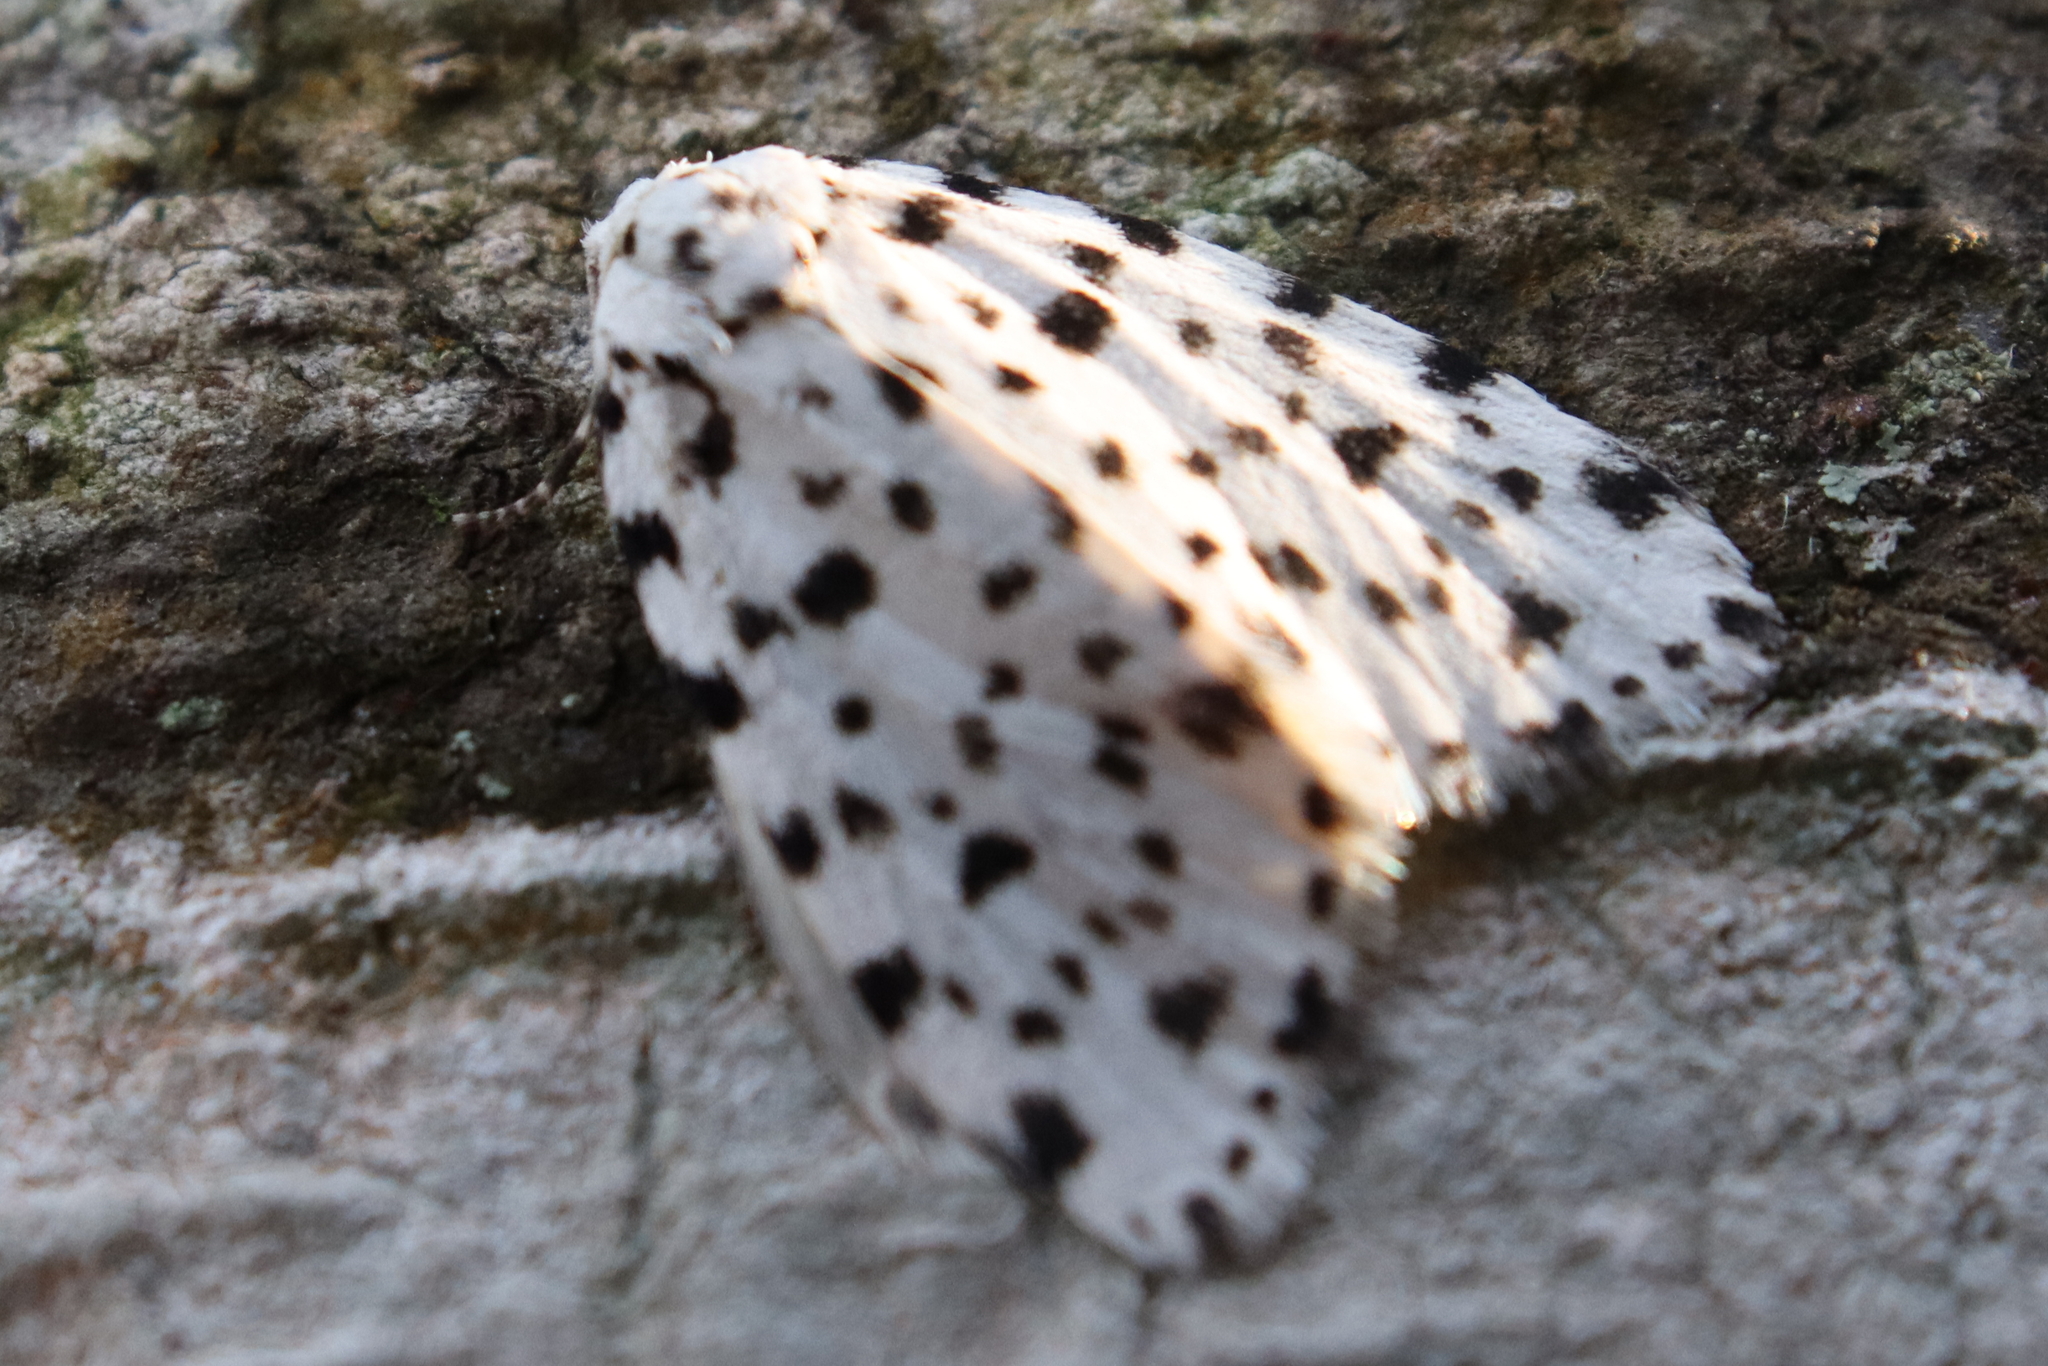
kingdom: Animalia
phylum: Arthropoda
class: Insecta
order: Lepidoptera
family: Erebidae
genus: Clemensia
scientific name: Clemensia panthera
